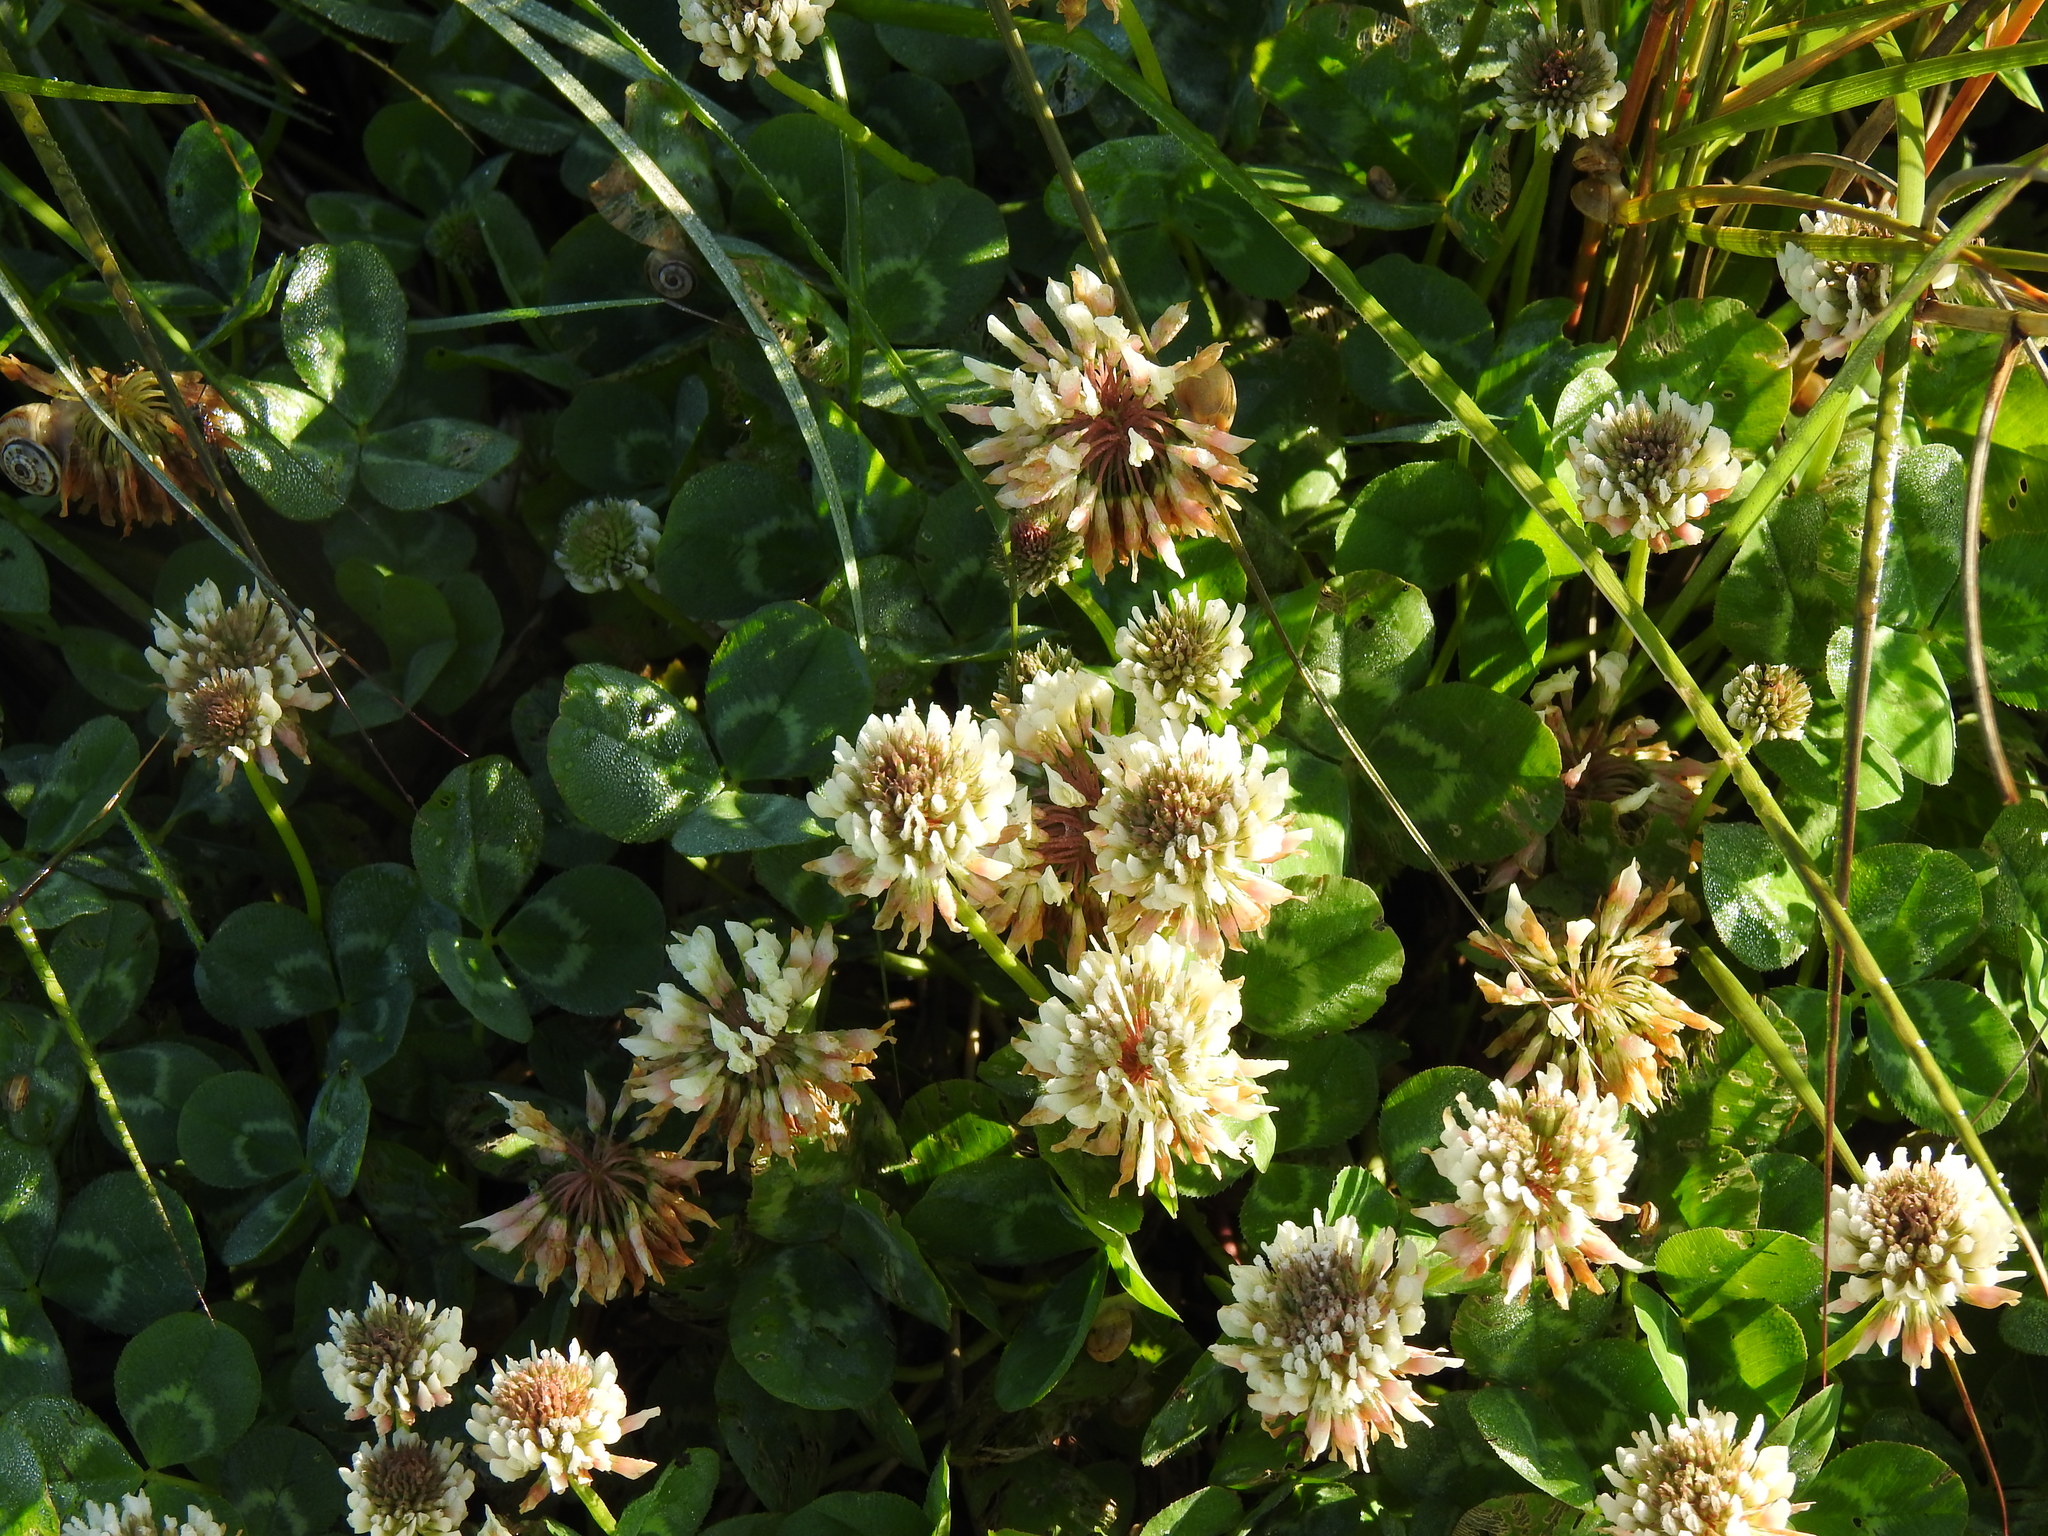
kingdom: Plantae
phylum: Tracheophyta
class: Magnoliopsida
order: Fabales
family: Fabaceae
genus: Trifolium
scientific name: Trifolium repens
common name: White clover
